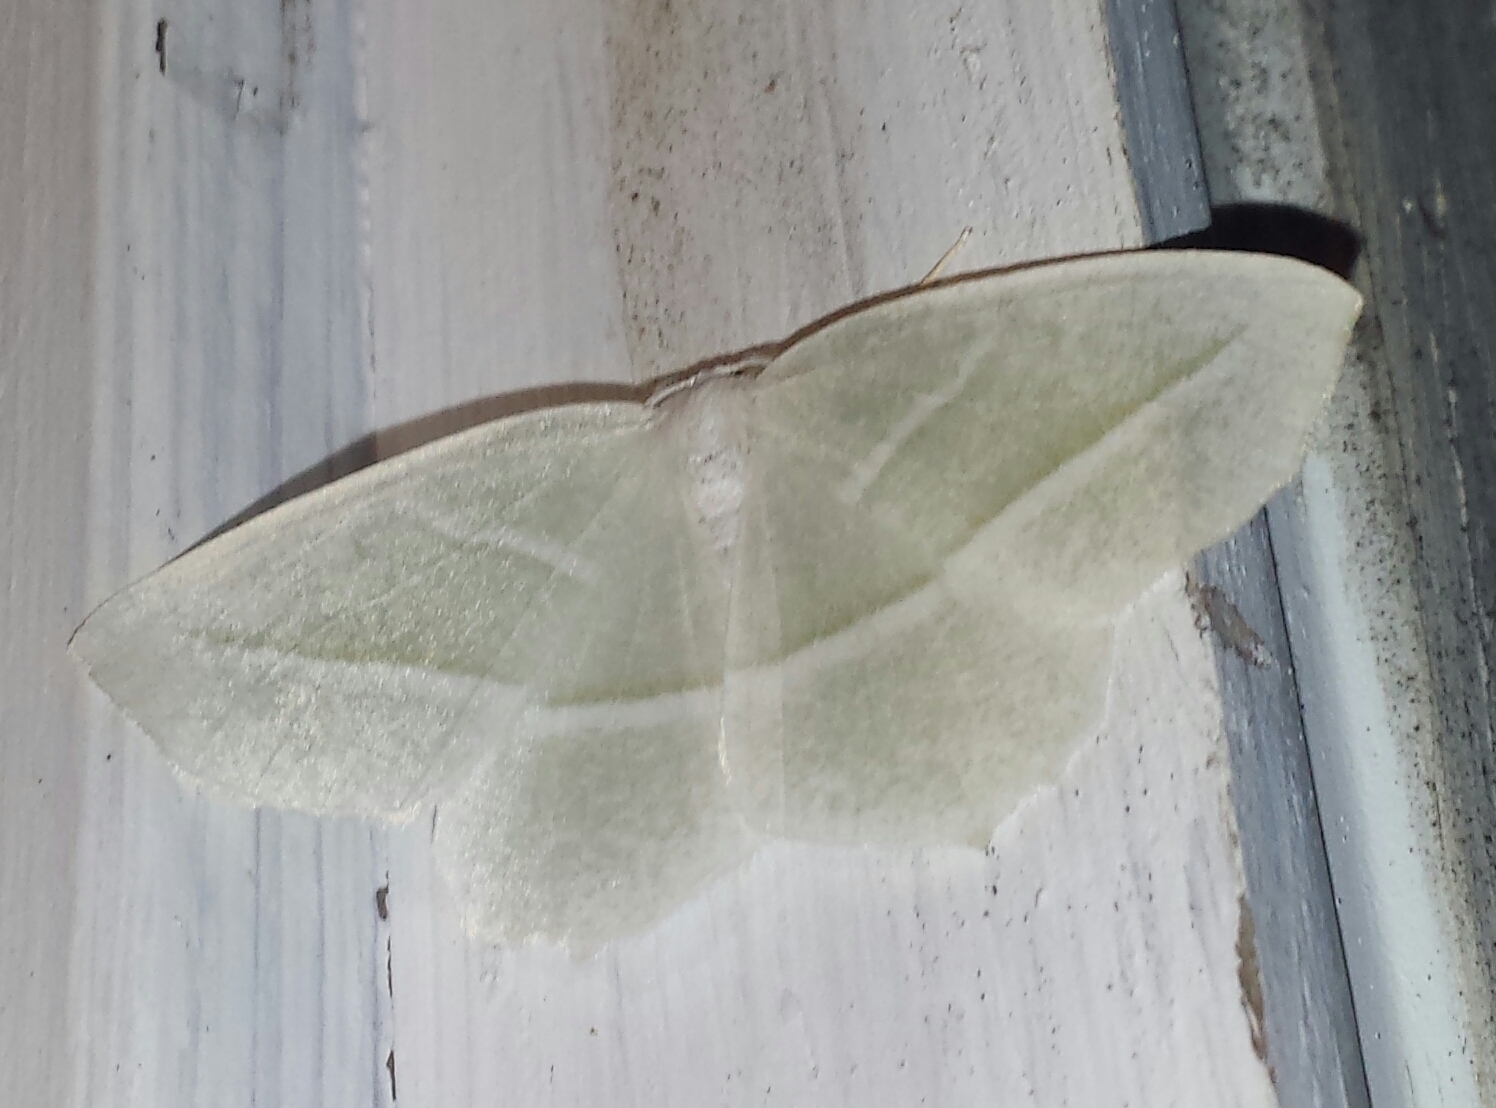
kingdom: Animalia
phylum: Arthropoda
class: Insecta
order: Lepidoptera
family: Geometridae
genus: Campaea
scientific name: Campaea perlata
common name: Fringed looper
